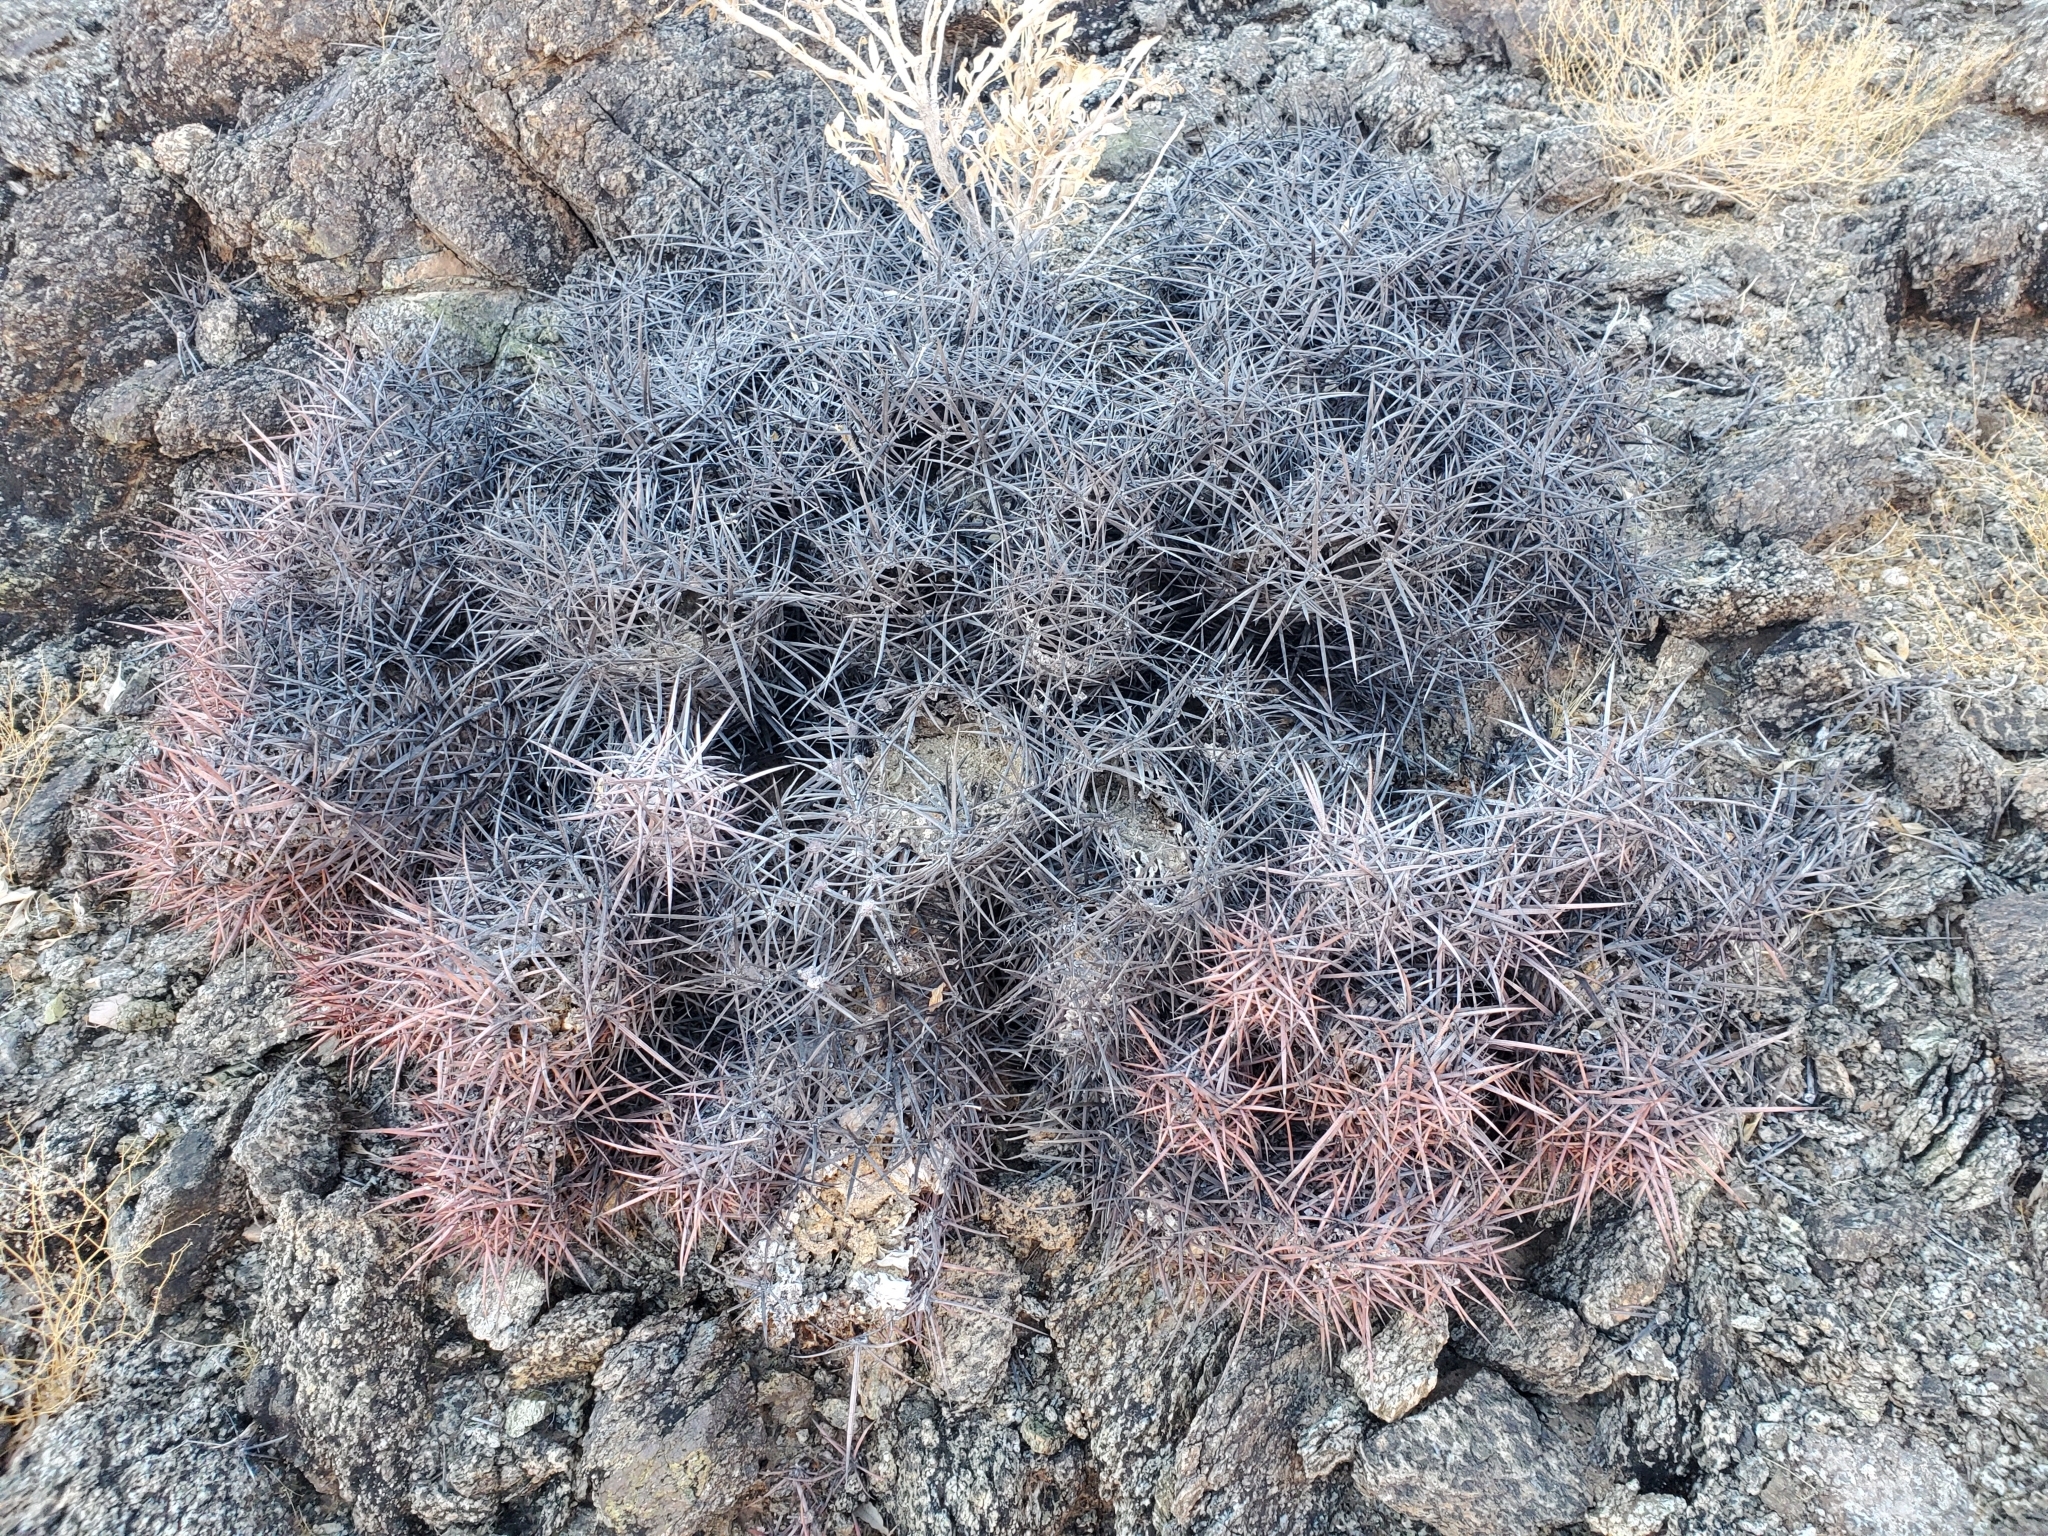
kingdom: Plantae
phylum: Tracheophyta
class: Magnoliopsida
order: Caryophyllales
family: Cactaceae
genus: Echinocactus
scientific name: Echinocactus polycephalus
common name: Cottontop cactus
